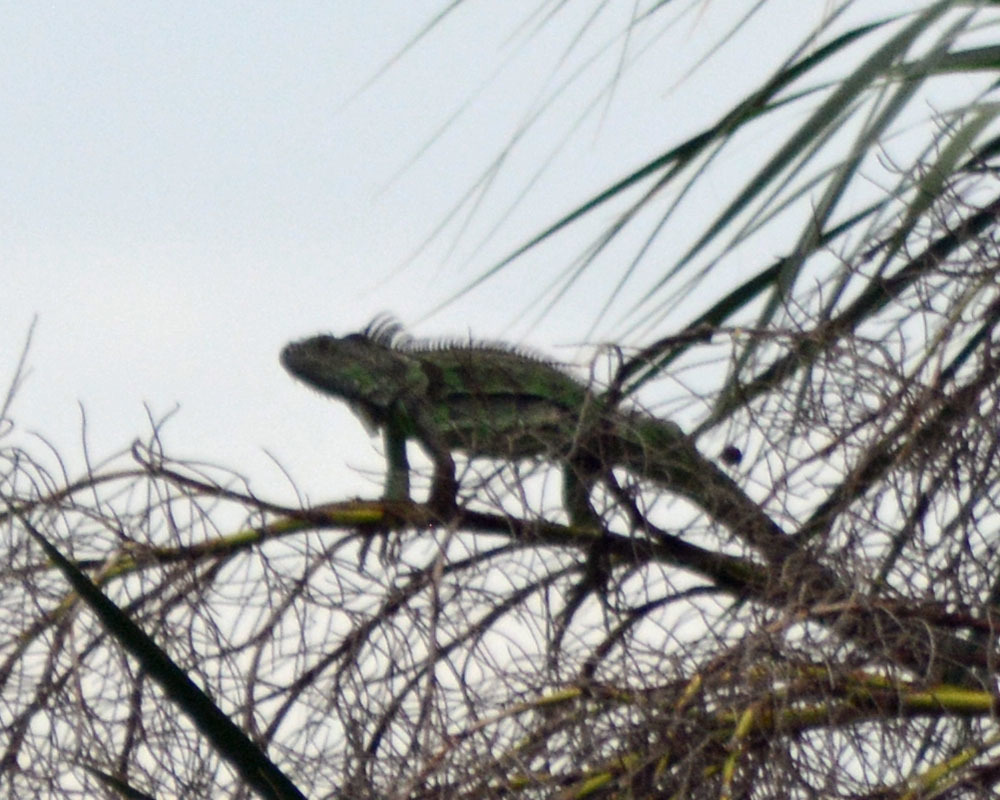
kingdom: Animalia
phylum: Chordata
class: Squamata
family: Iguanidae
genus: Iguana
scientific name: Iguana iguana
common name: Green iguana
